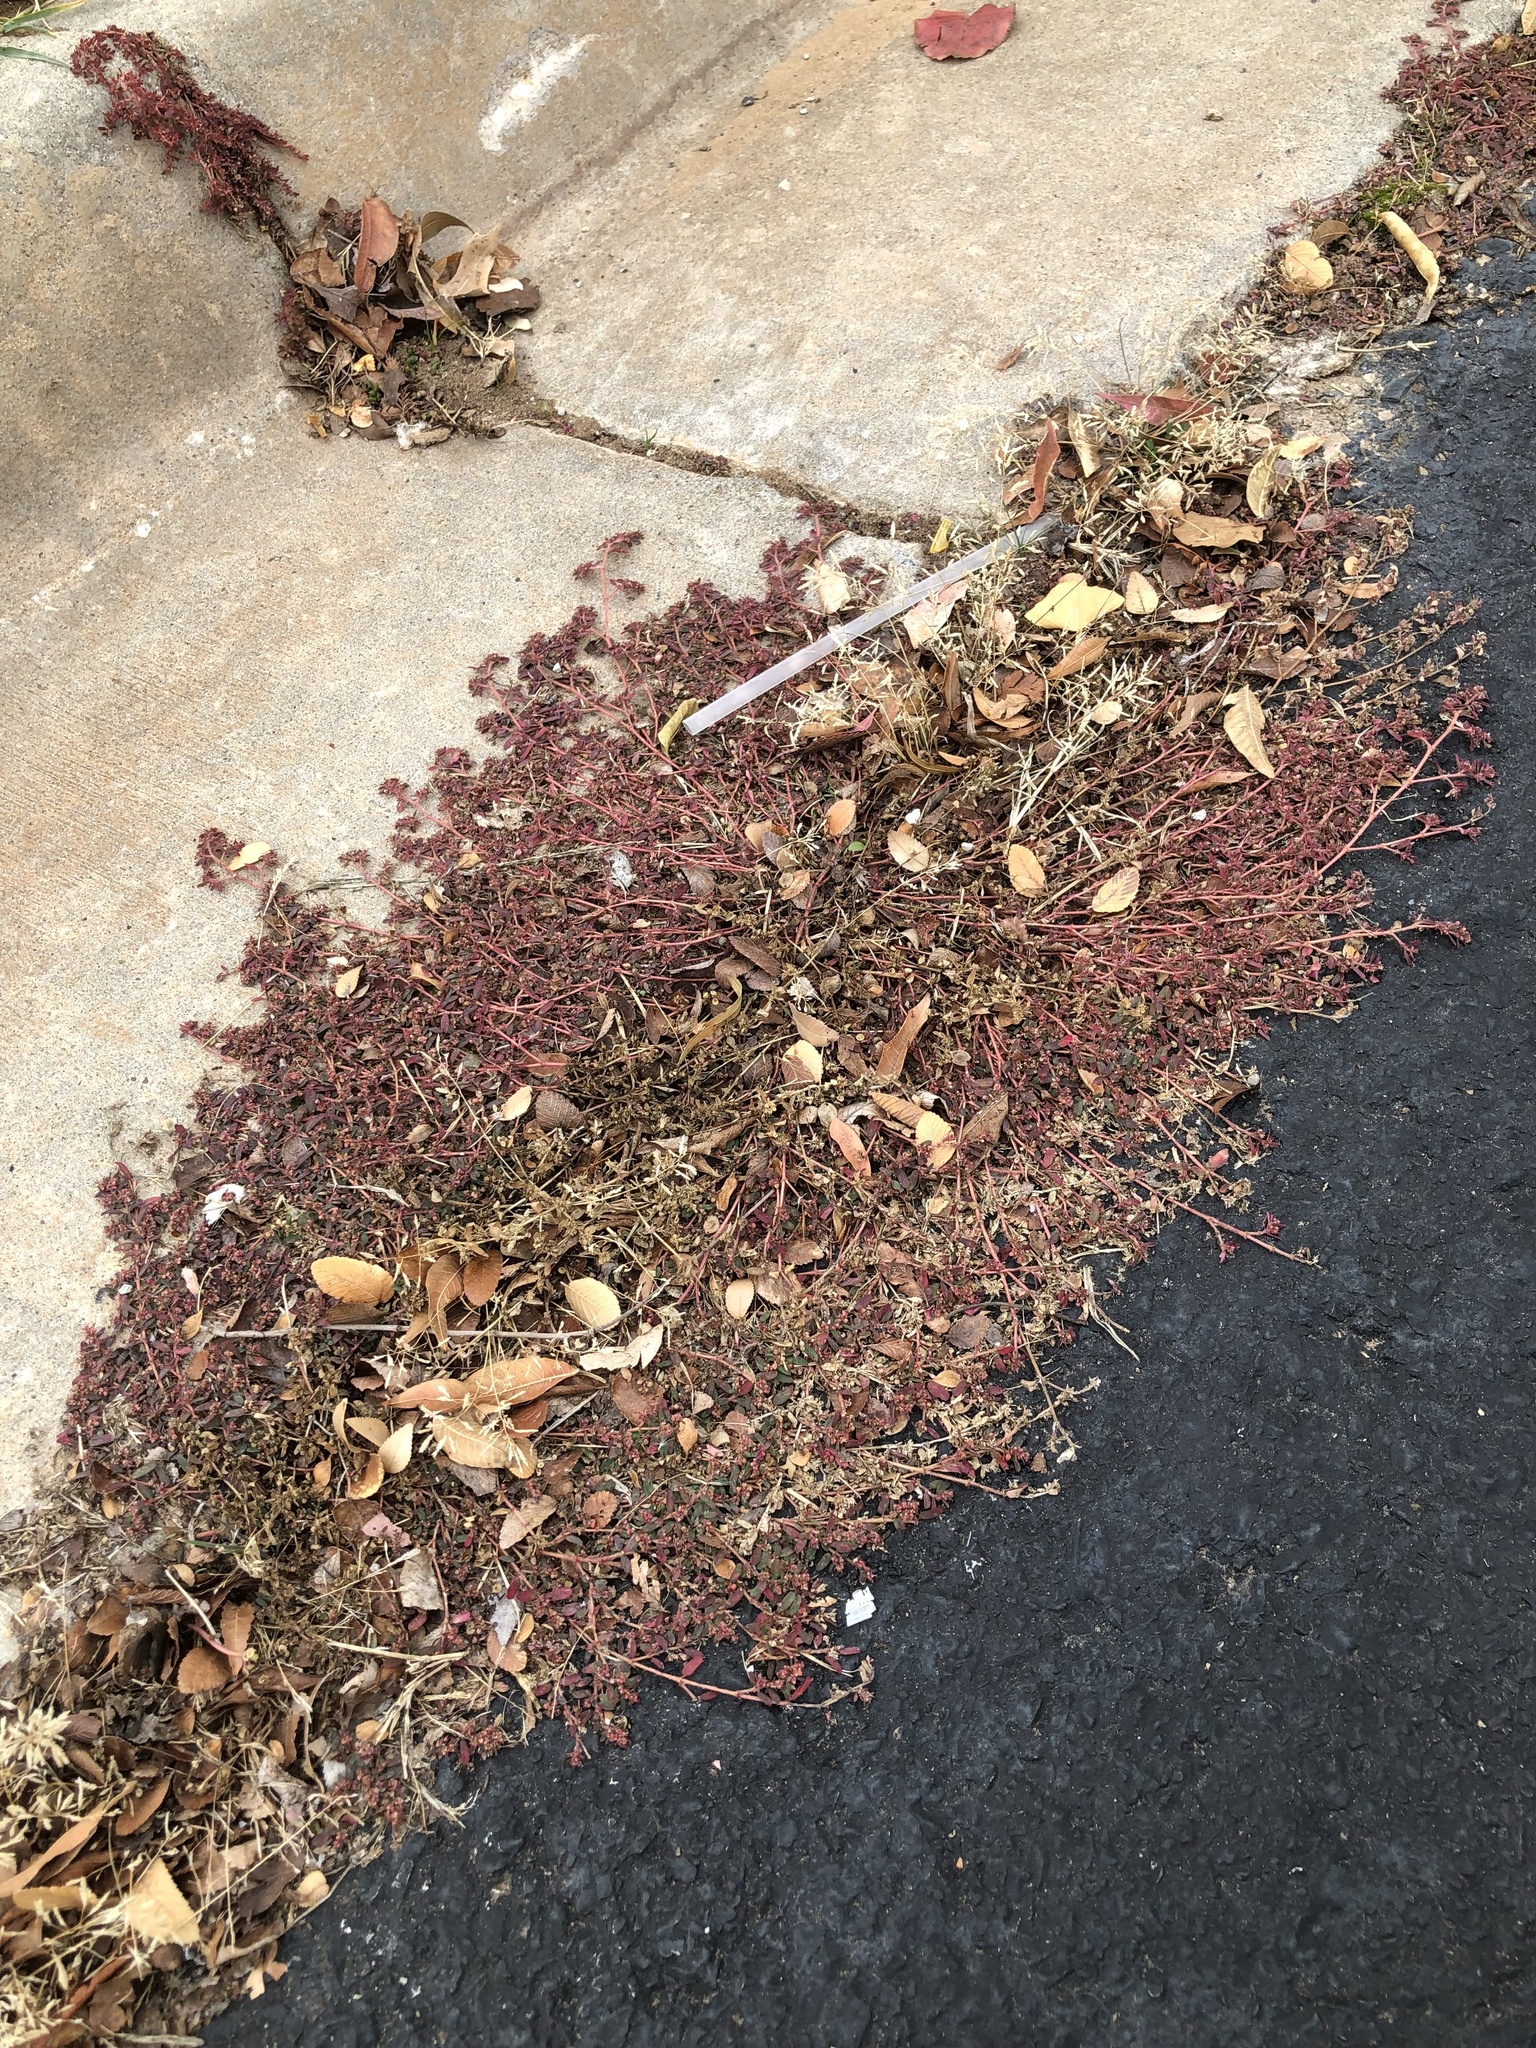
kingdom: Plantae
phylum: Tracheophyta
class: Magnoliopsida
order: Malpighiales
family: Euphorbiaceae
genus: Euphorbia
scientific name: Euphorbia maculata
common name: Spotted spurge
